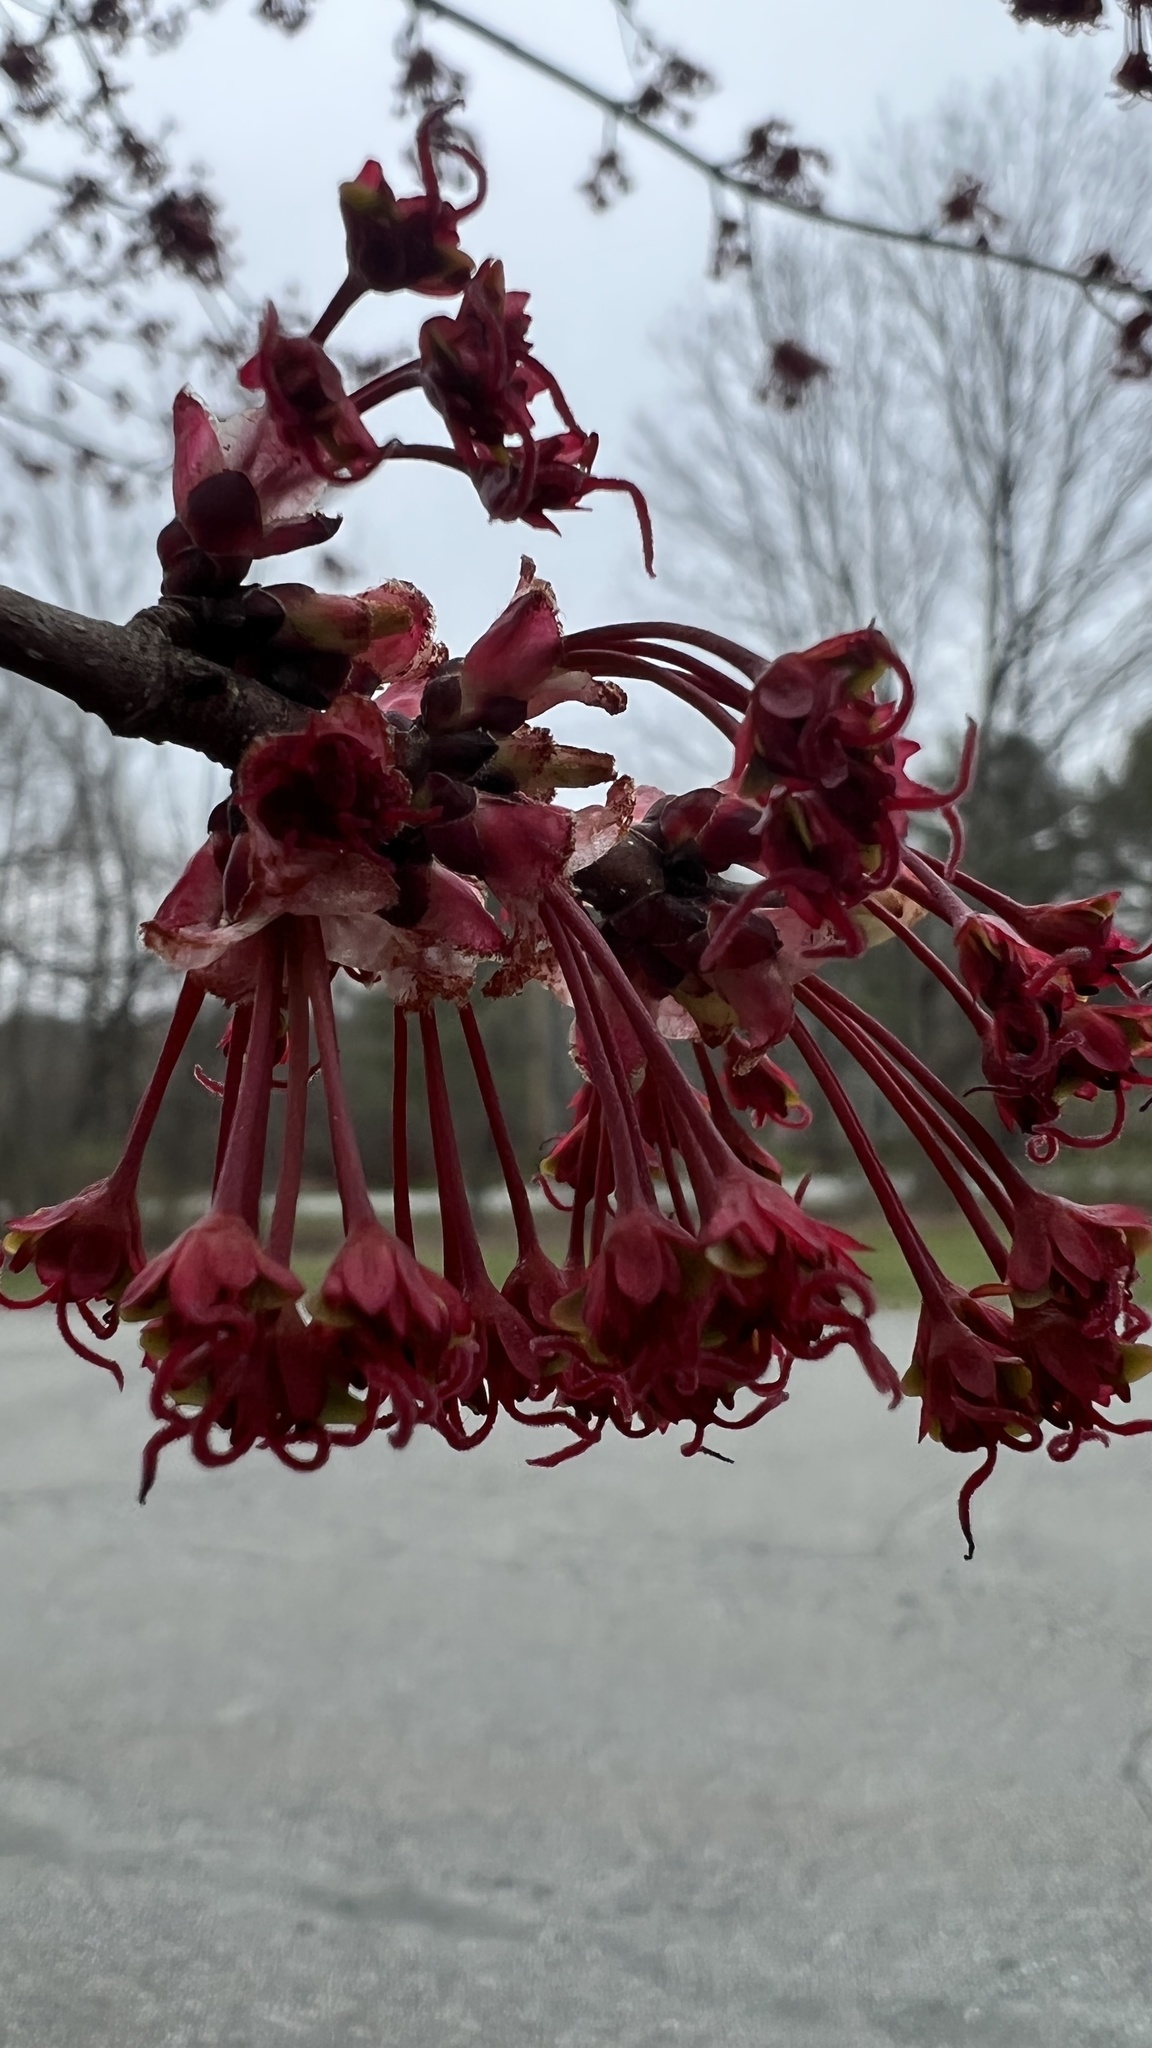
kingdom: Plantae
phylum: Tracheophyta
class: Magnoliopsida
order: Sapindales
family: Sapindaceae
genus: Acer
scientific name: Acer rubrum
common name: Red maple
